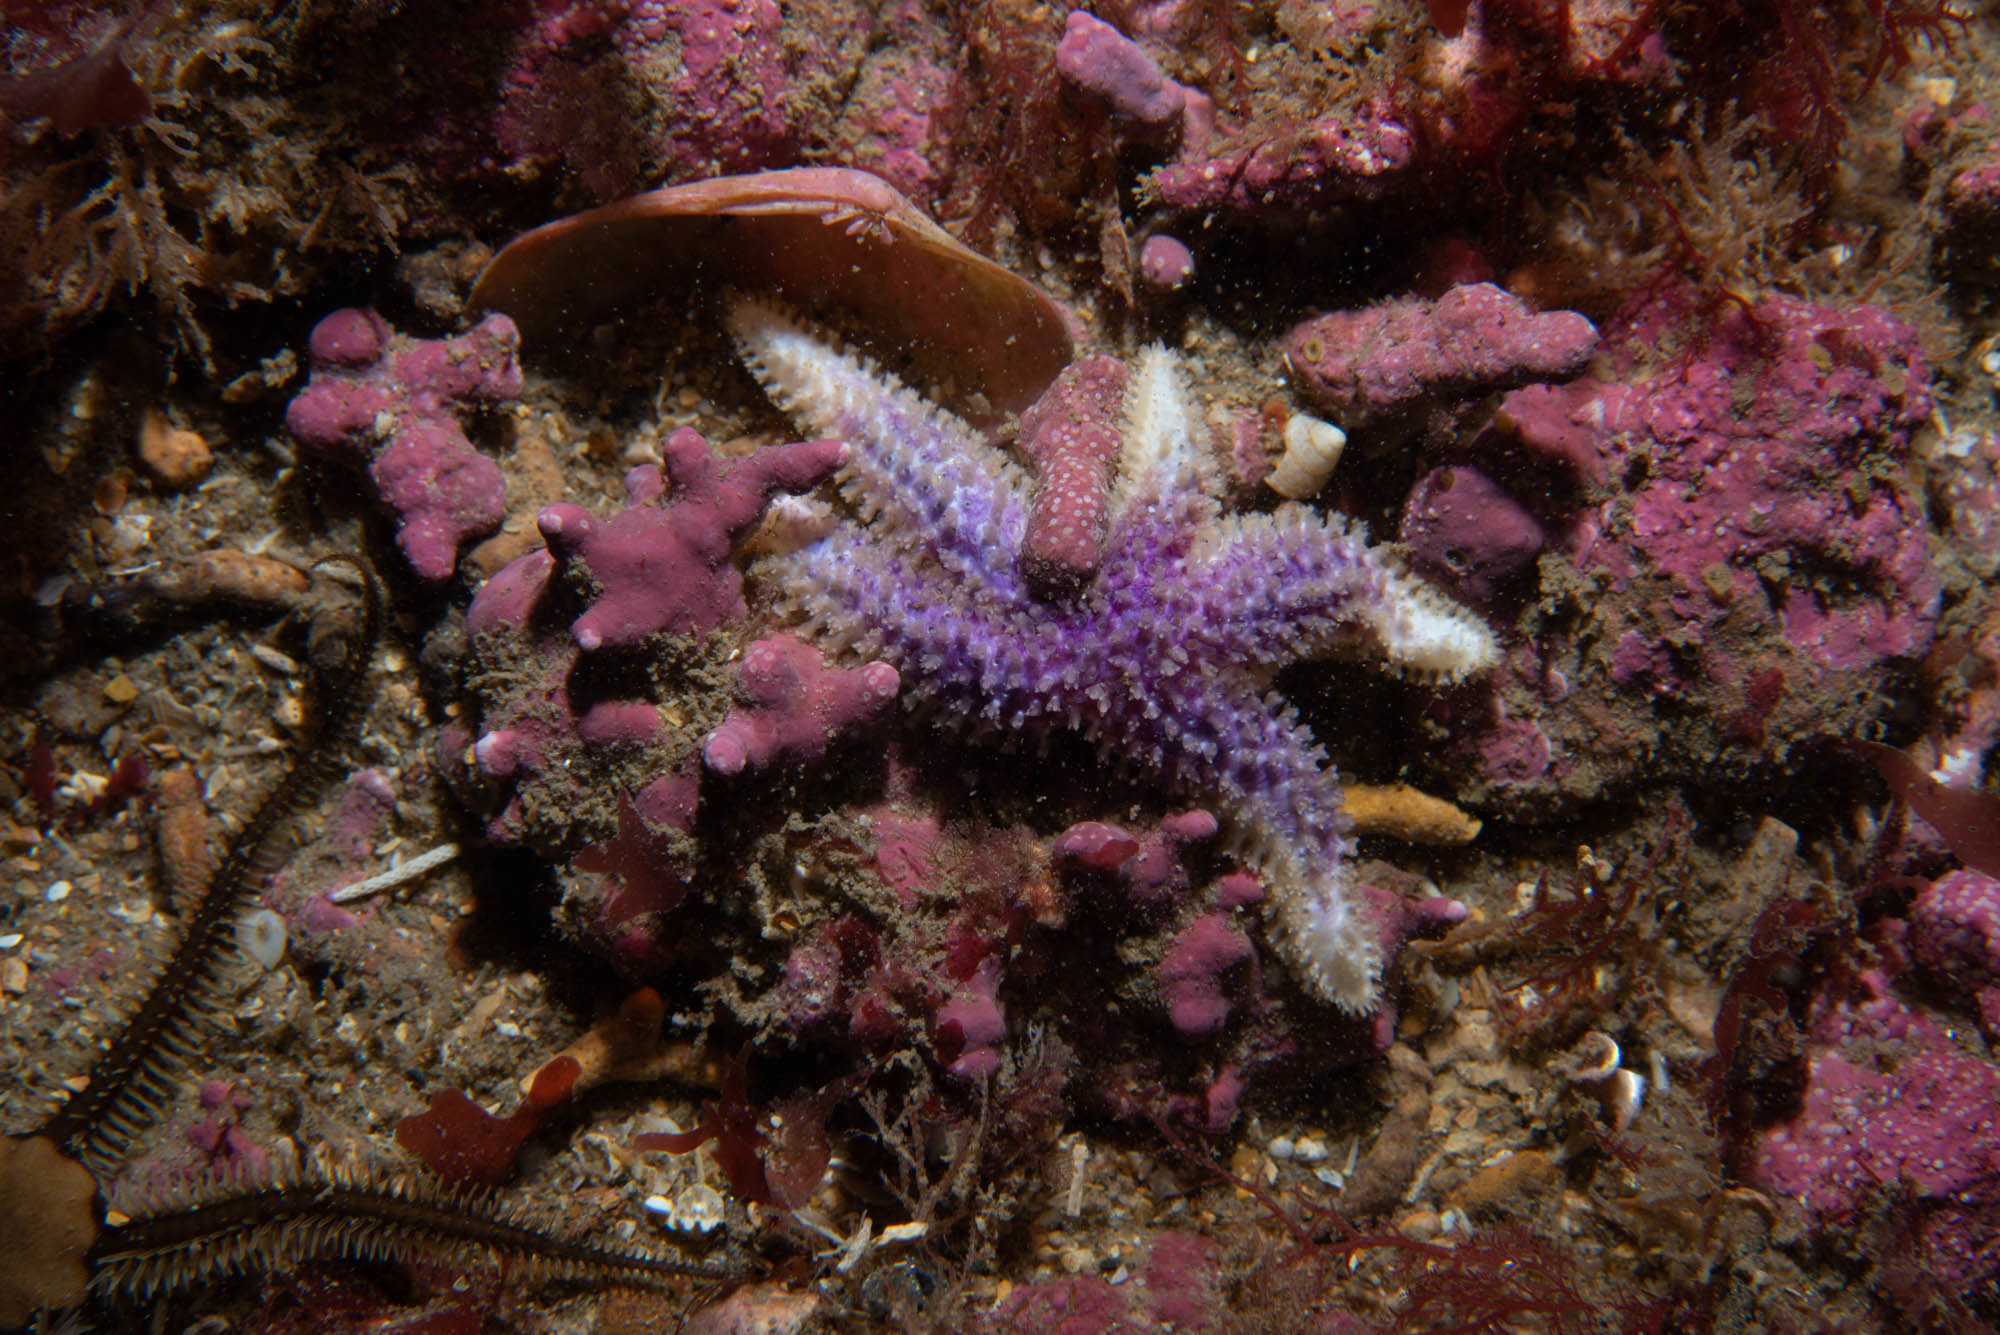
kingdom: Animalia
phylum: Echinodermata
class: Asteroidea
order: Forcipulatida
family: Asteriidae
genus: Leptasterias
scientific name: Leptasterias muelleri
